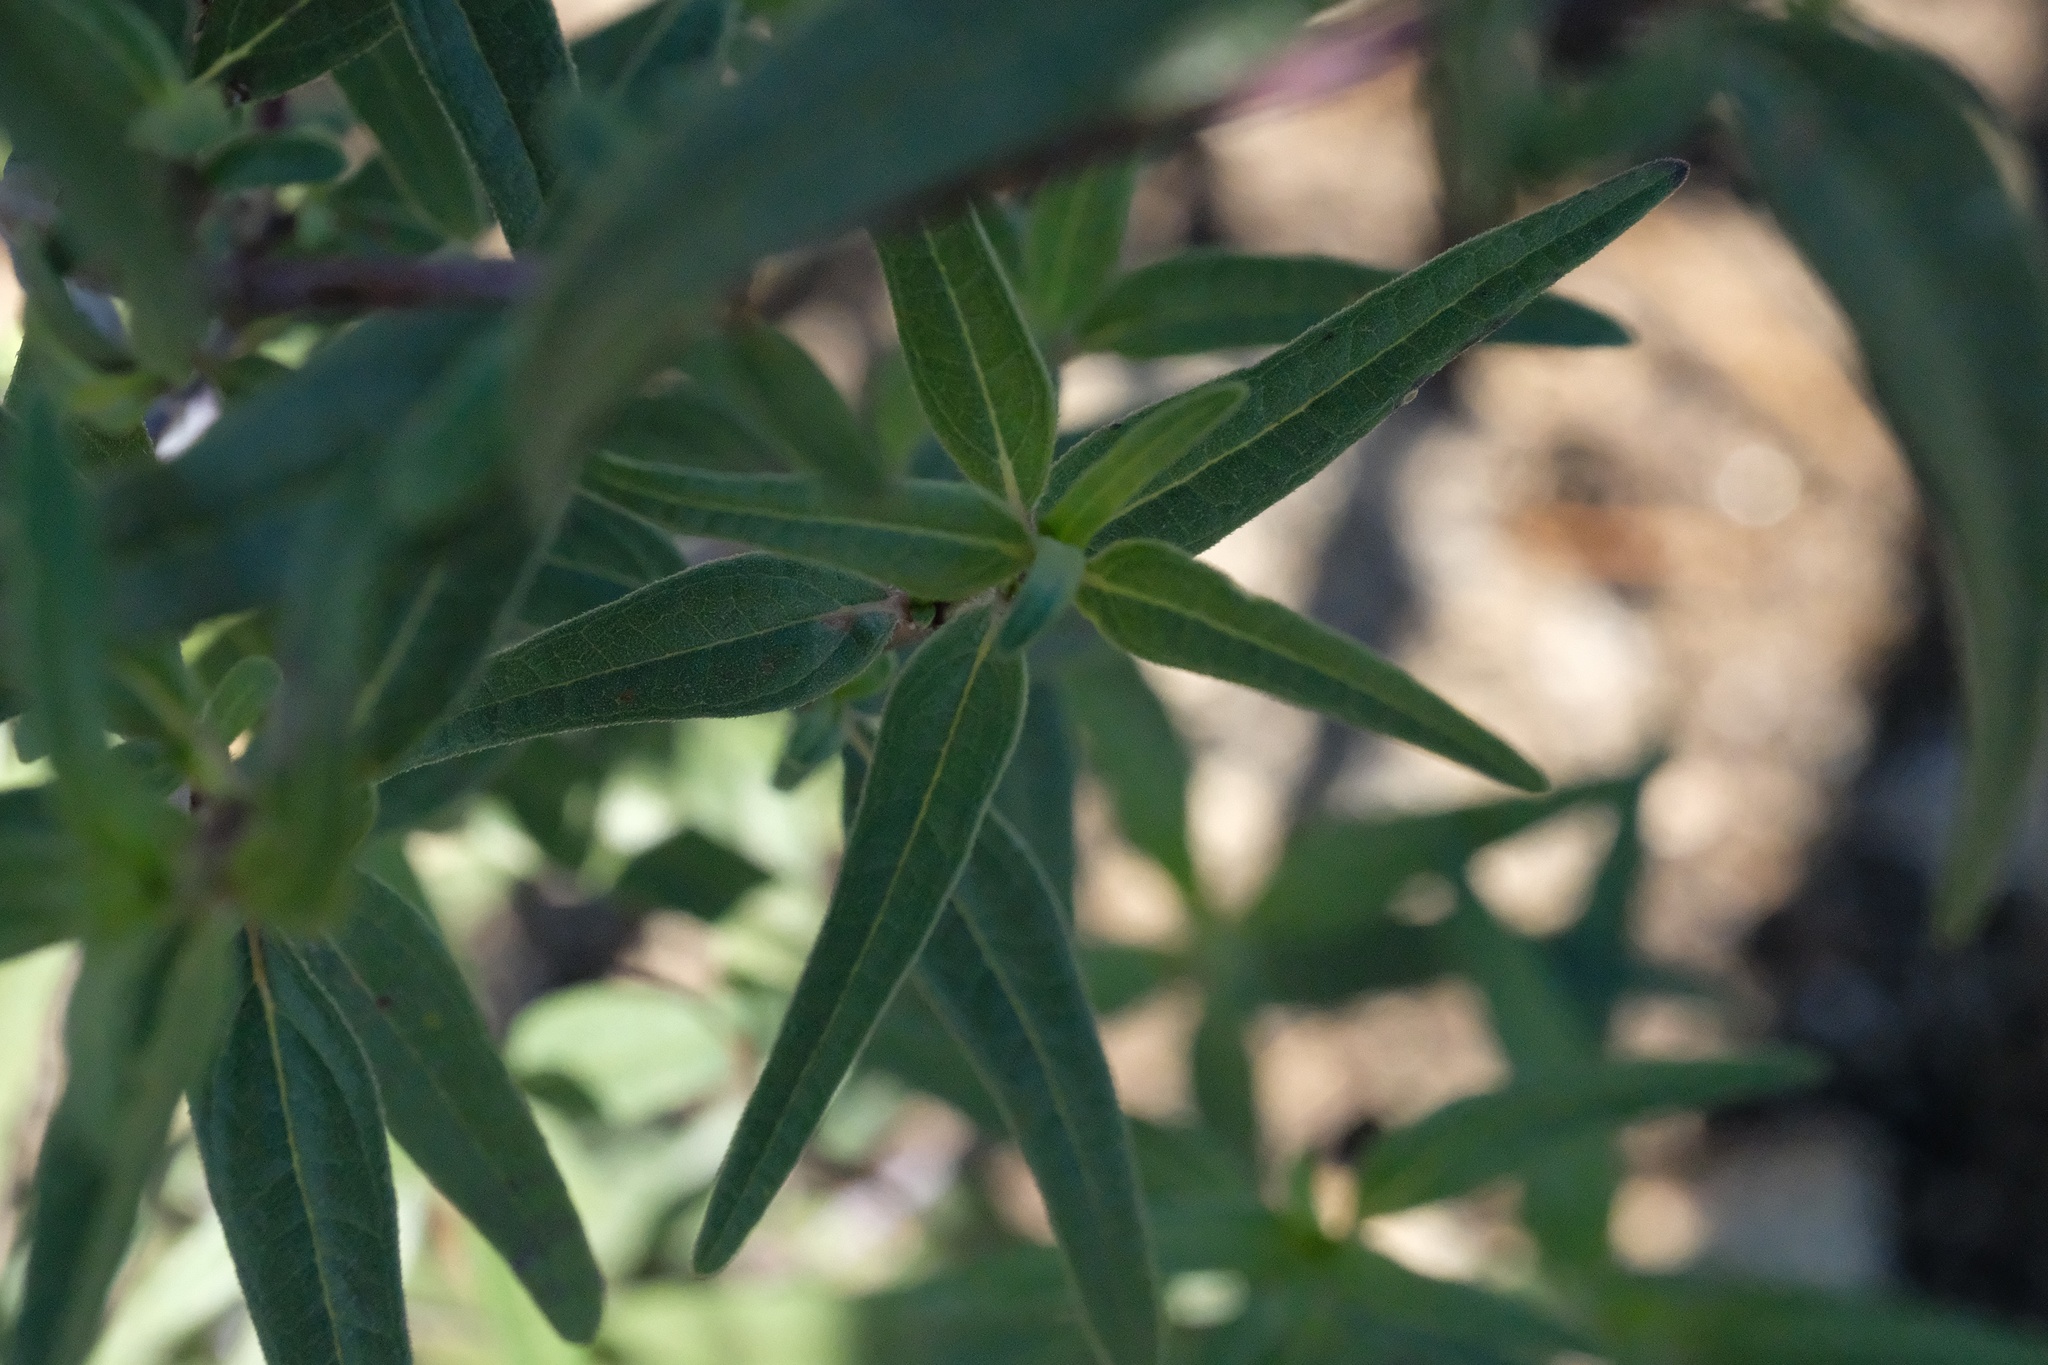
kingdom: Plantae
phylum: Tracheophyta
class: Magnoliopsida
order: Asterales
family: Asteraceae
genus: Helianthus
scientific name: Helianthus gracilentus
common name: Slender sunflower
